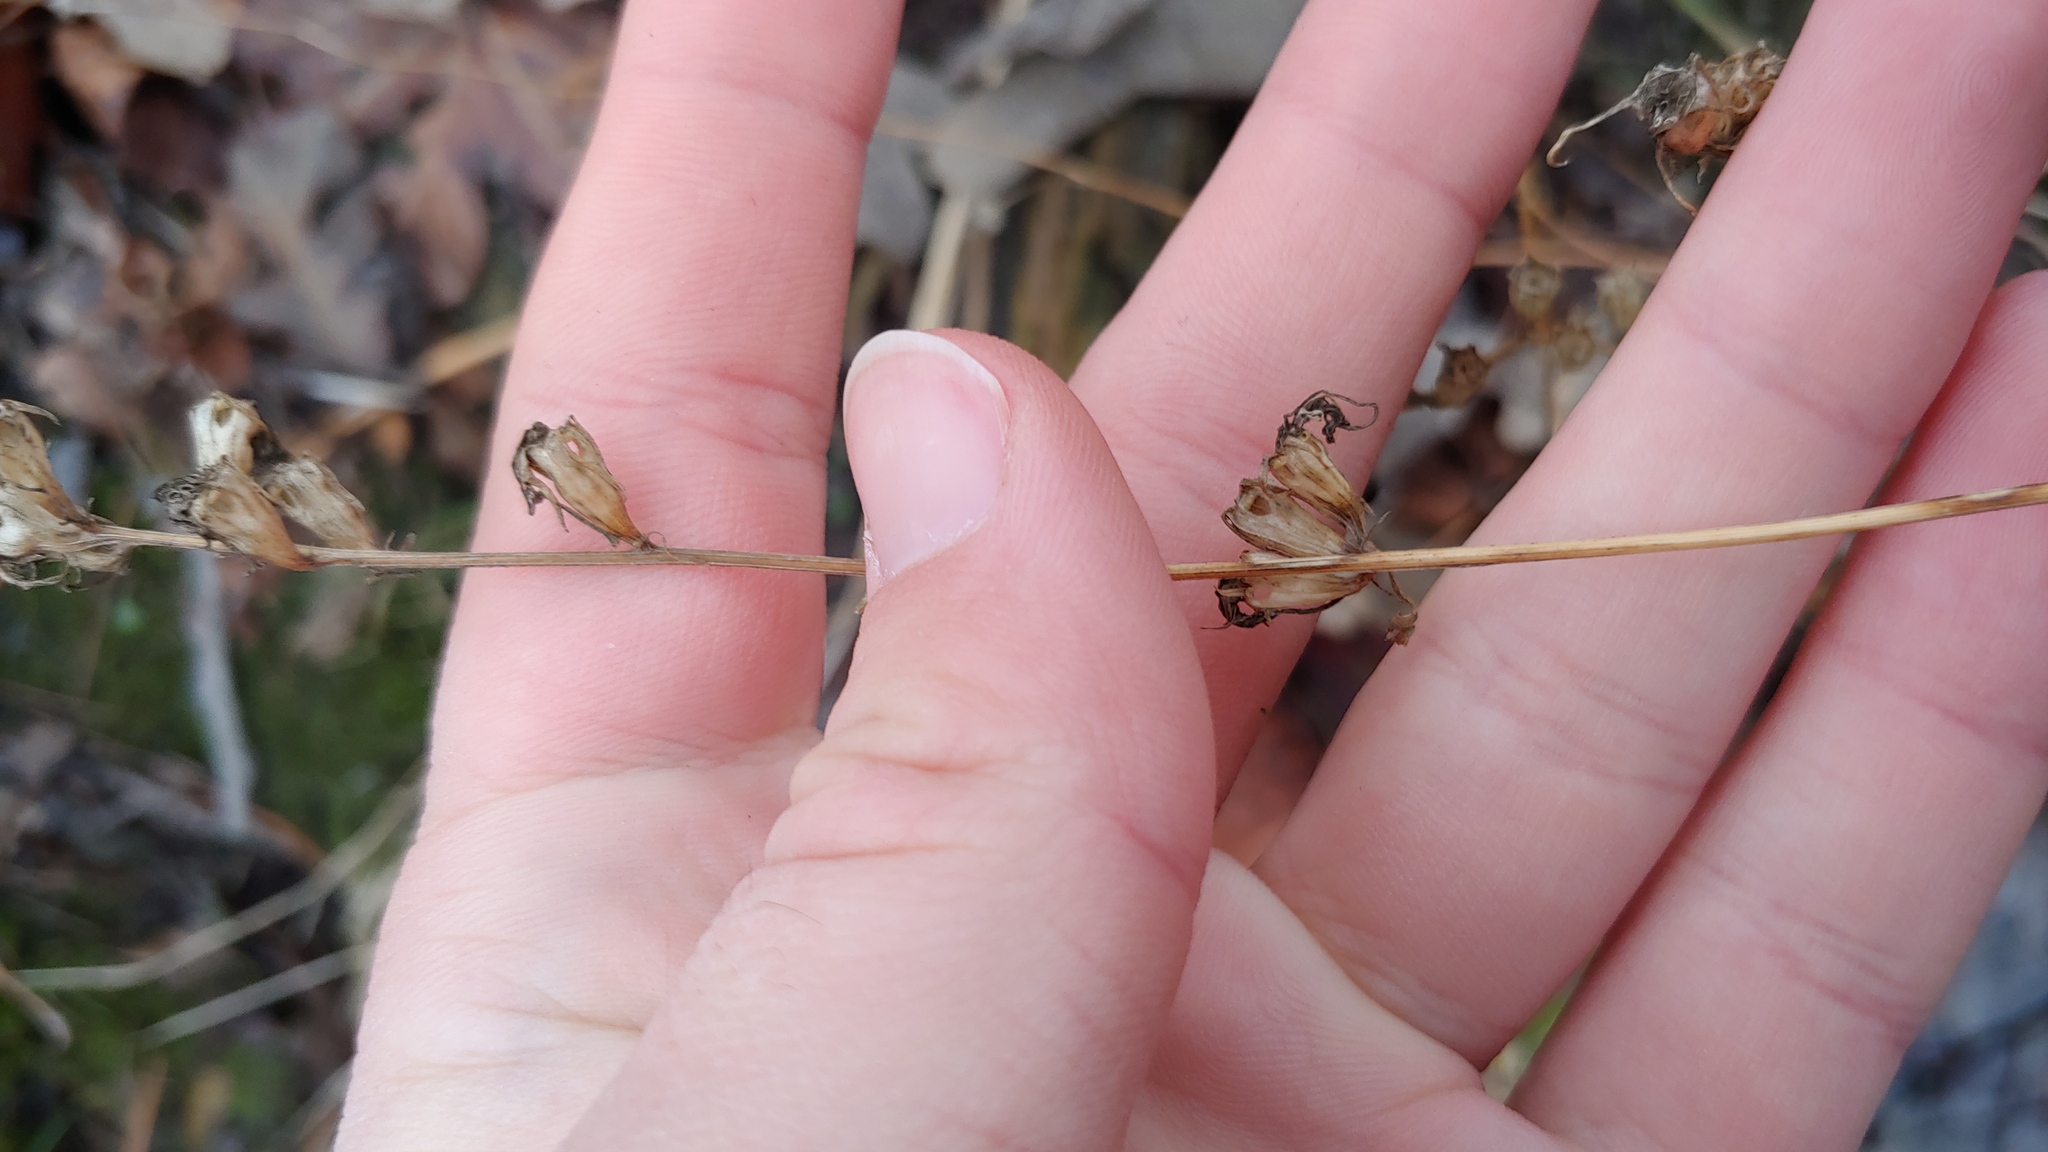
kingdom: Plantae
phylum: Tracheophyta
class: Magnoliopsida
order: Asterales
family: Campanulaceae
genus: Campanulastrum
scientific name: Campanulastrum americanum
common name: American bellflower
